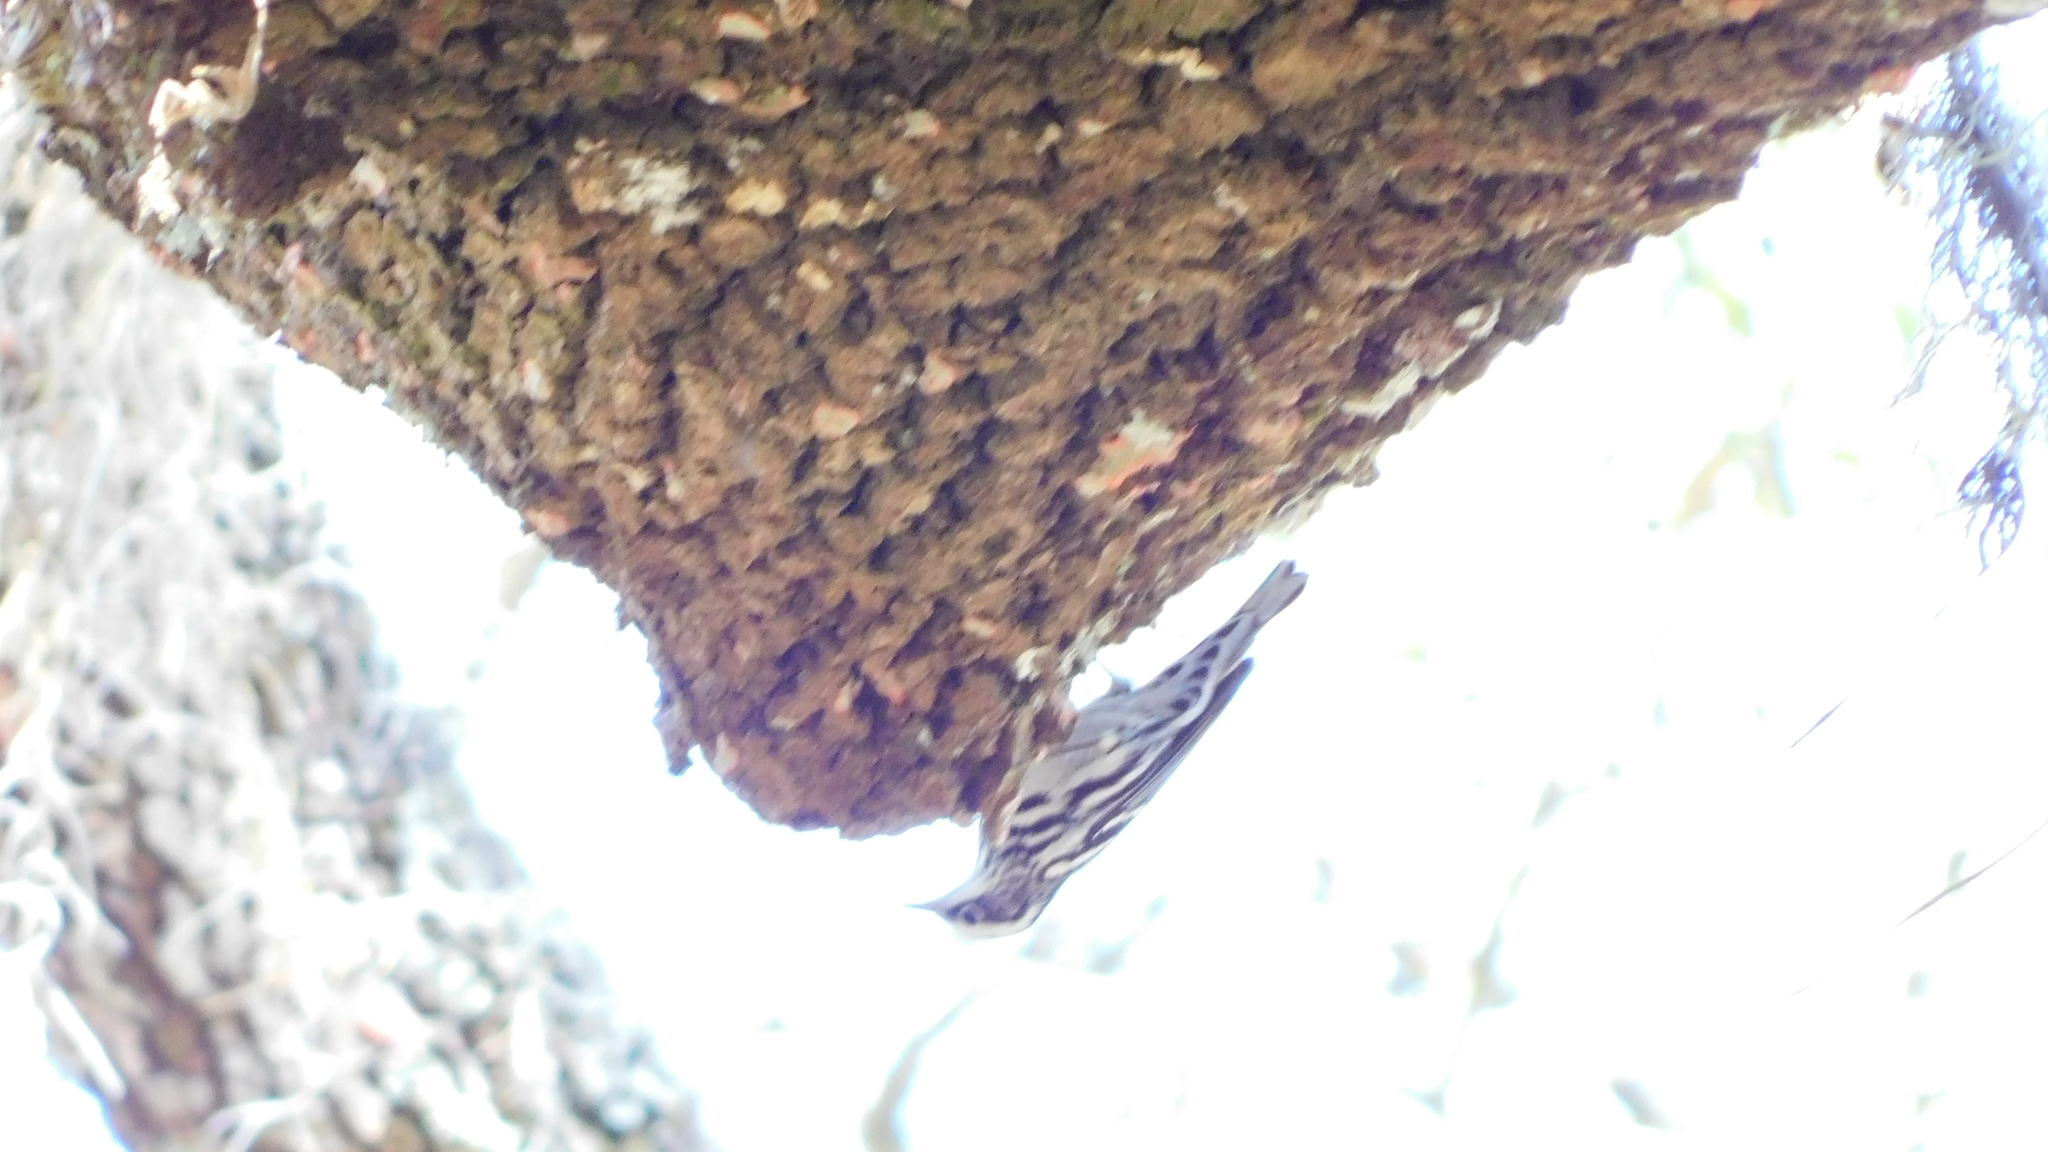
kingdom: Animalia
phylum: Chordata
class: Aves
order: Passeriformes
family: Parulidae
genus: Mniotilta
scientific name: Mniotilta varia
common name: Black-and-white warbler
